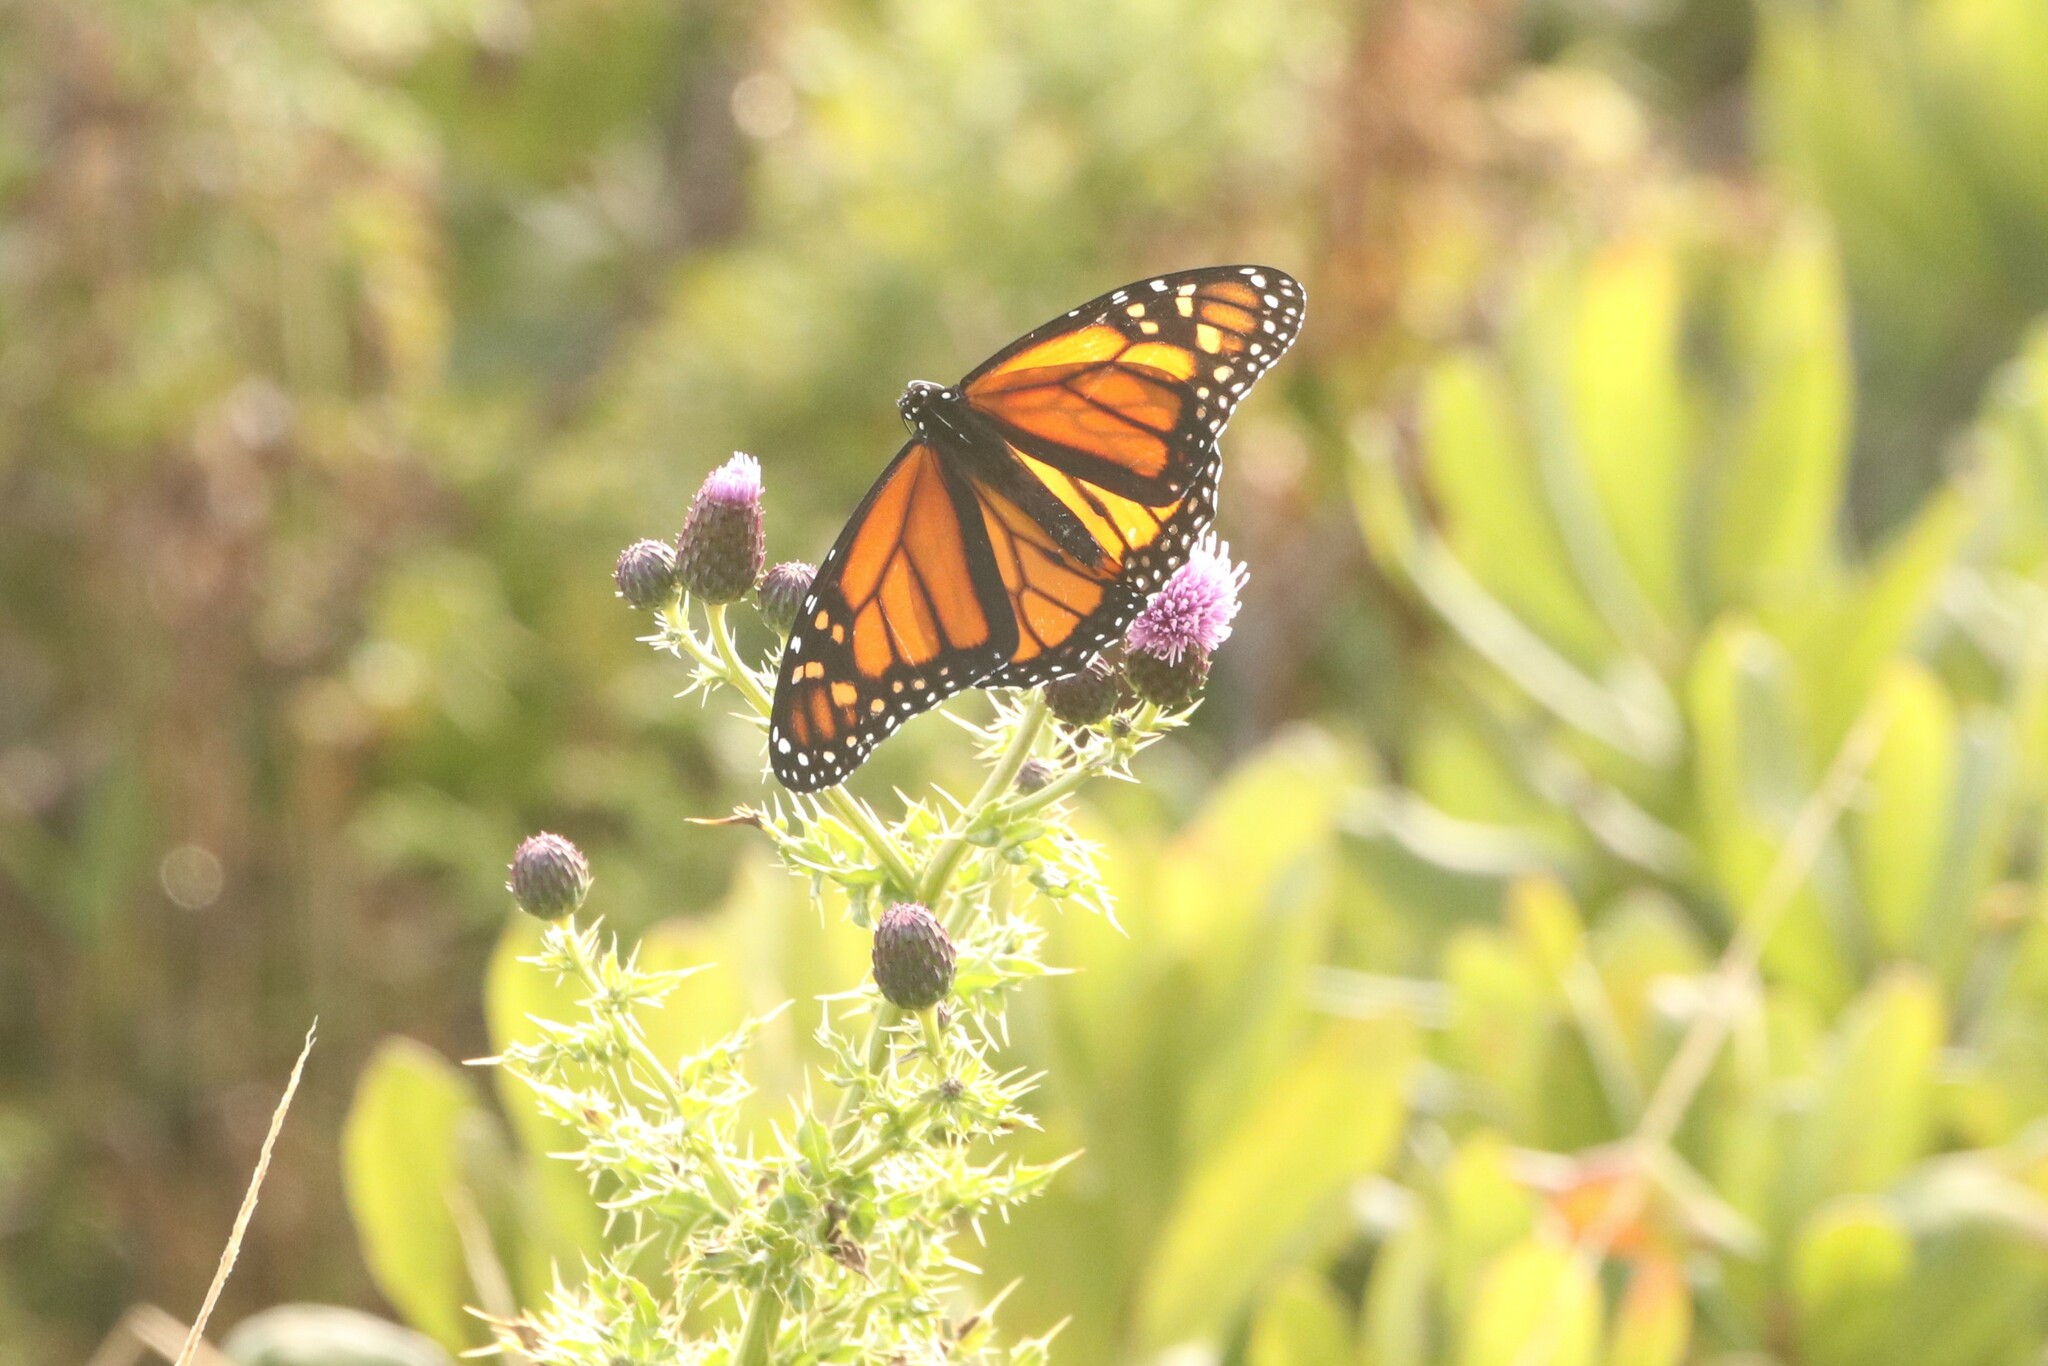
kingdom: Animalia
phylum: Arthropoda
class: Insecta
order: Lepidoptera
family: Nymphalidae
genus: Danaus
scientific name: Danaus plexippus
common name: Monarch
